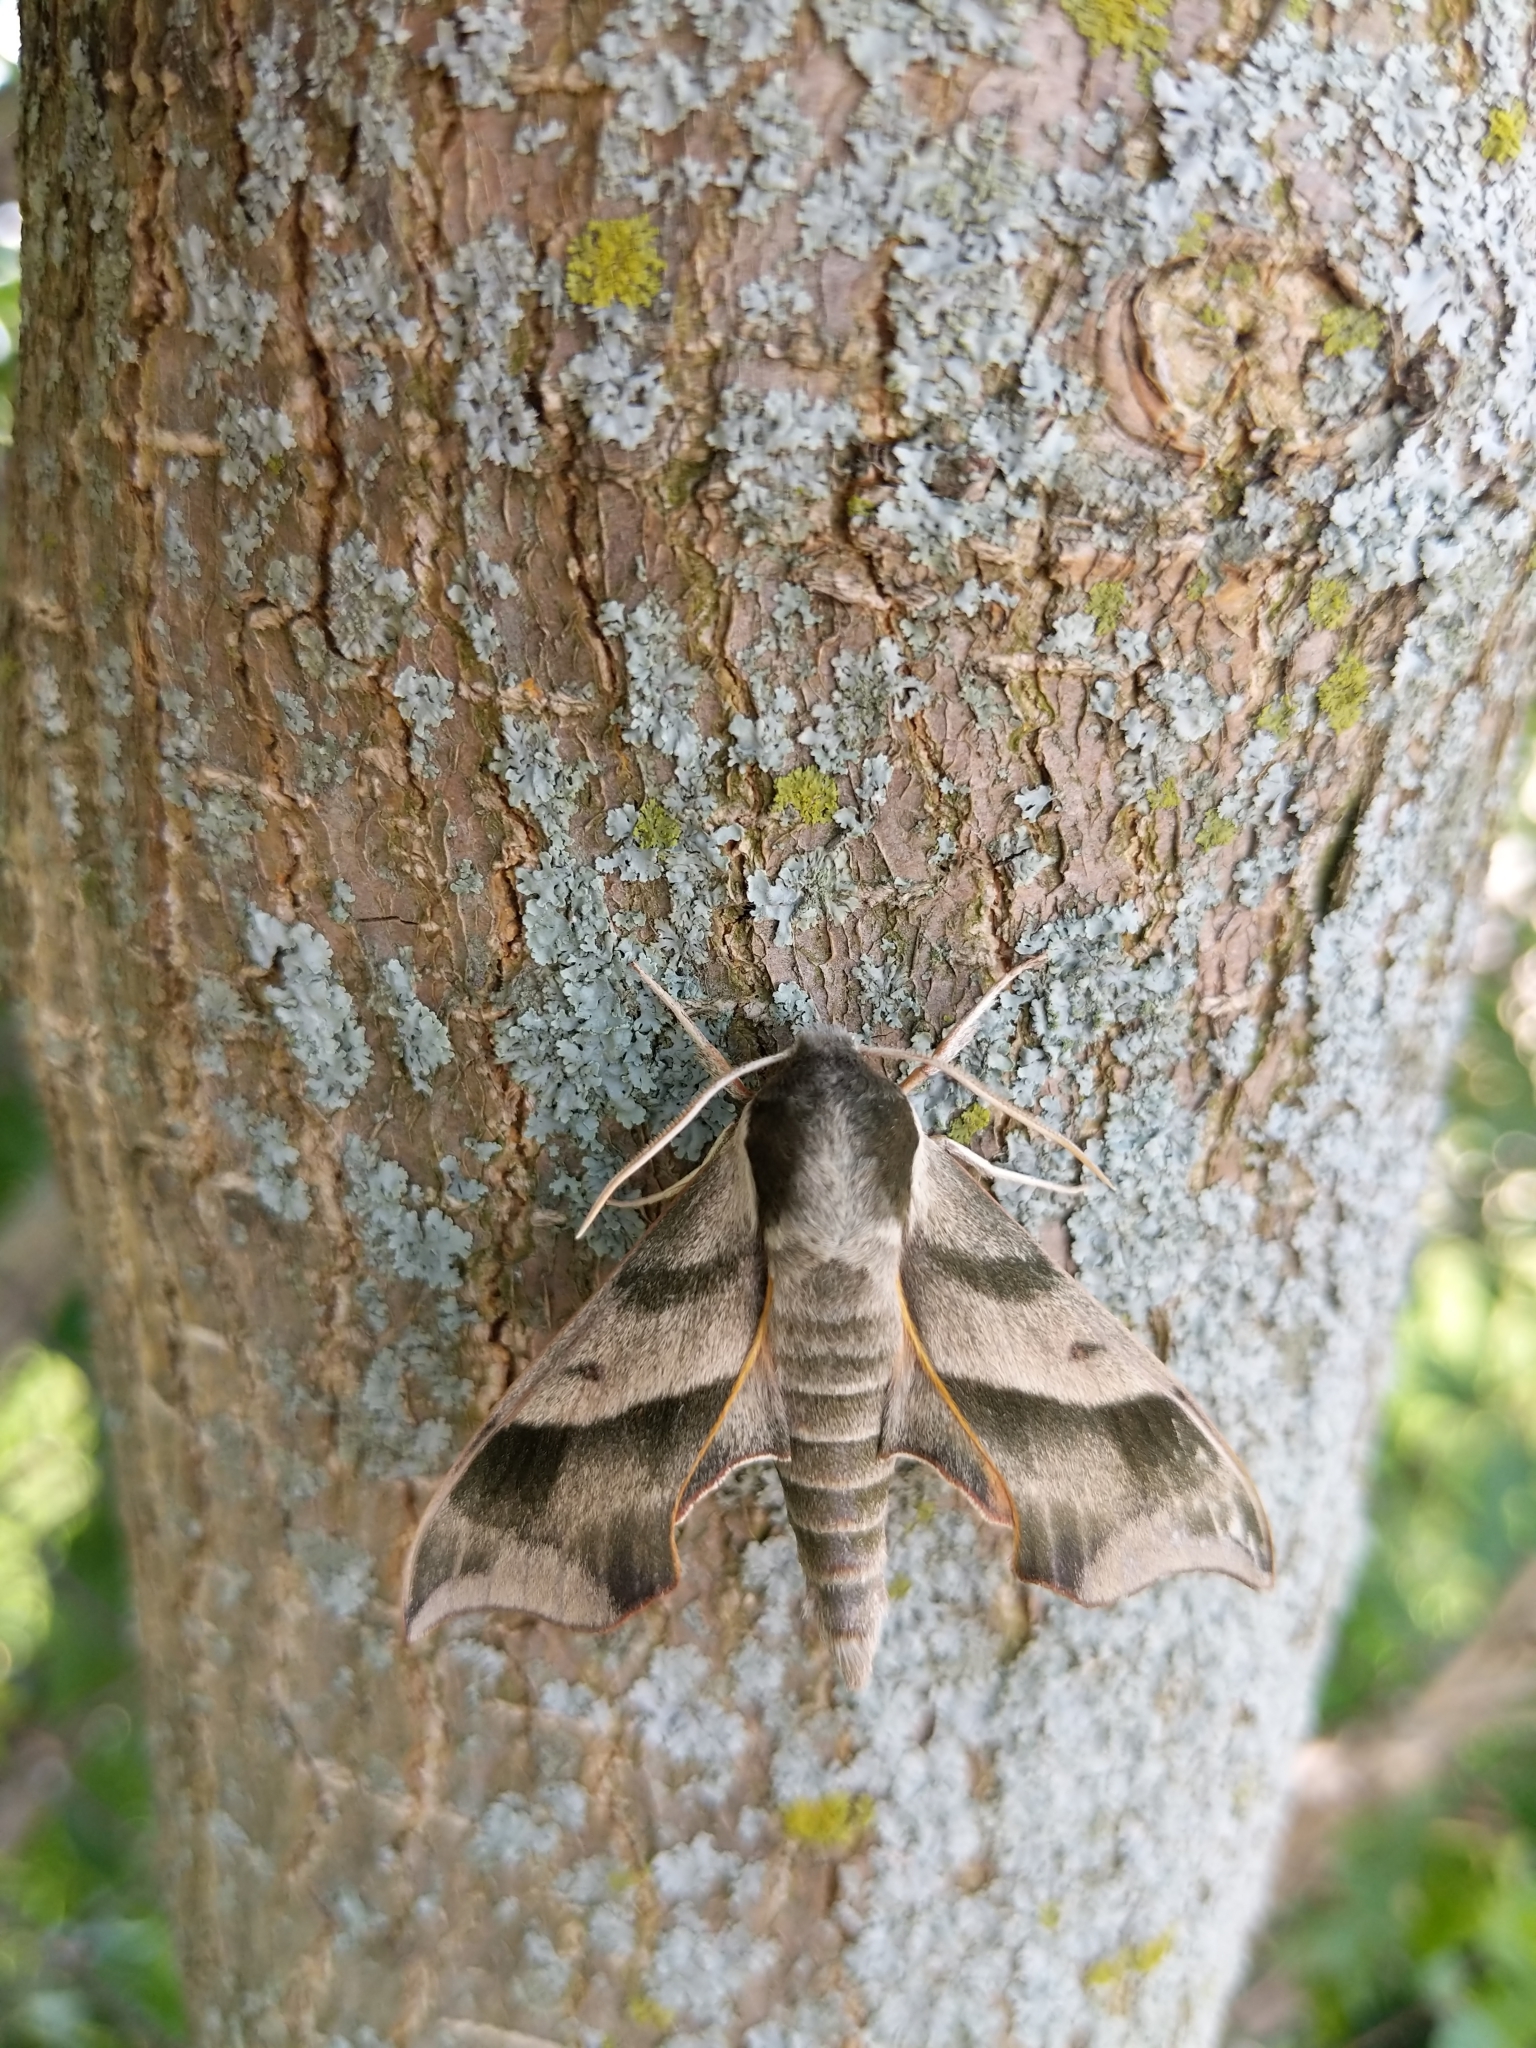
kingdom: Animalia
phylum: Arthropoda
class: Insecta
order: Lepidoptera
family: Sphingidae
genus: Darapsa
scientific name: Darapsa myron
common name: Hog sphinx
